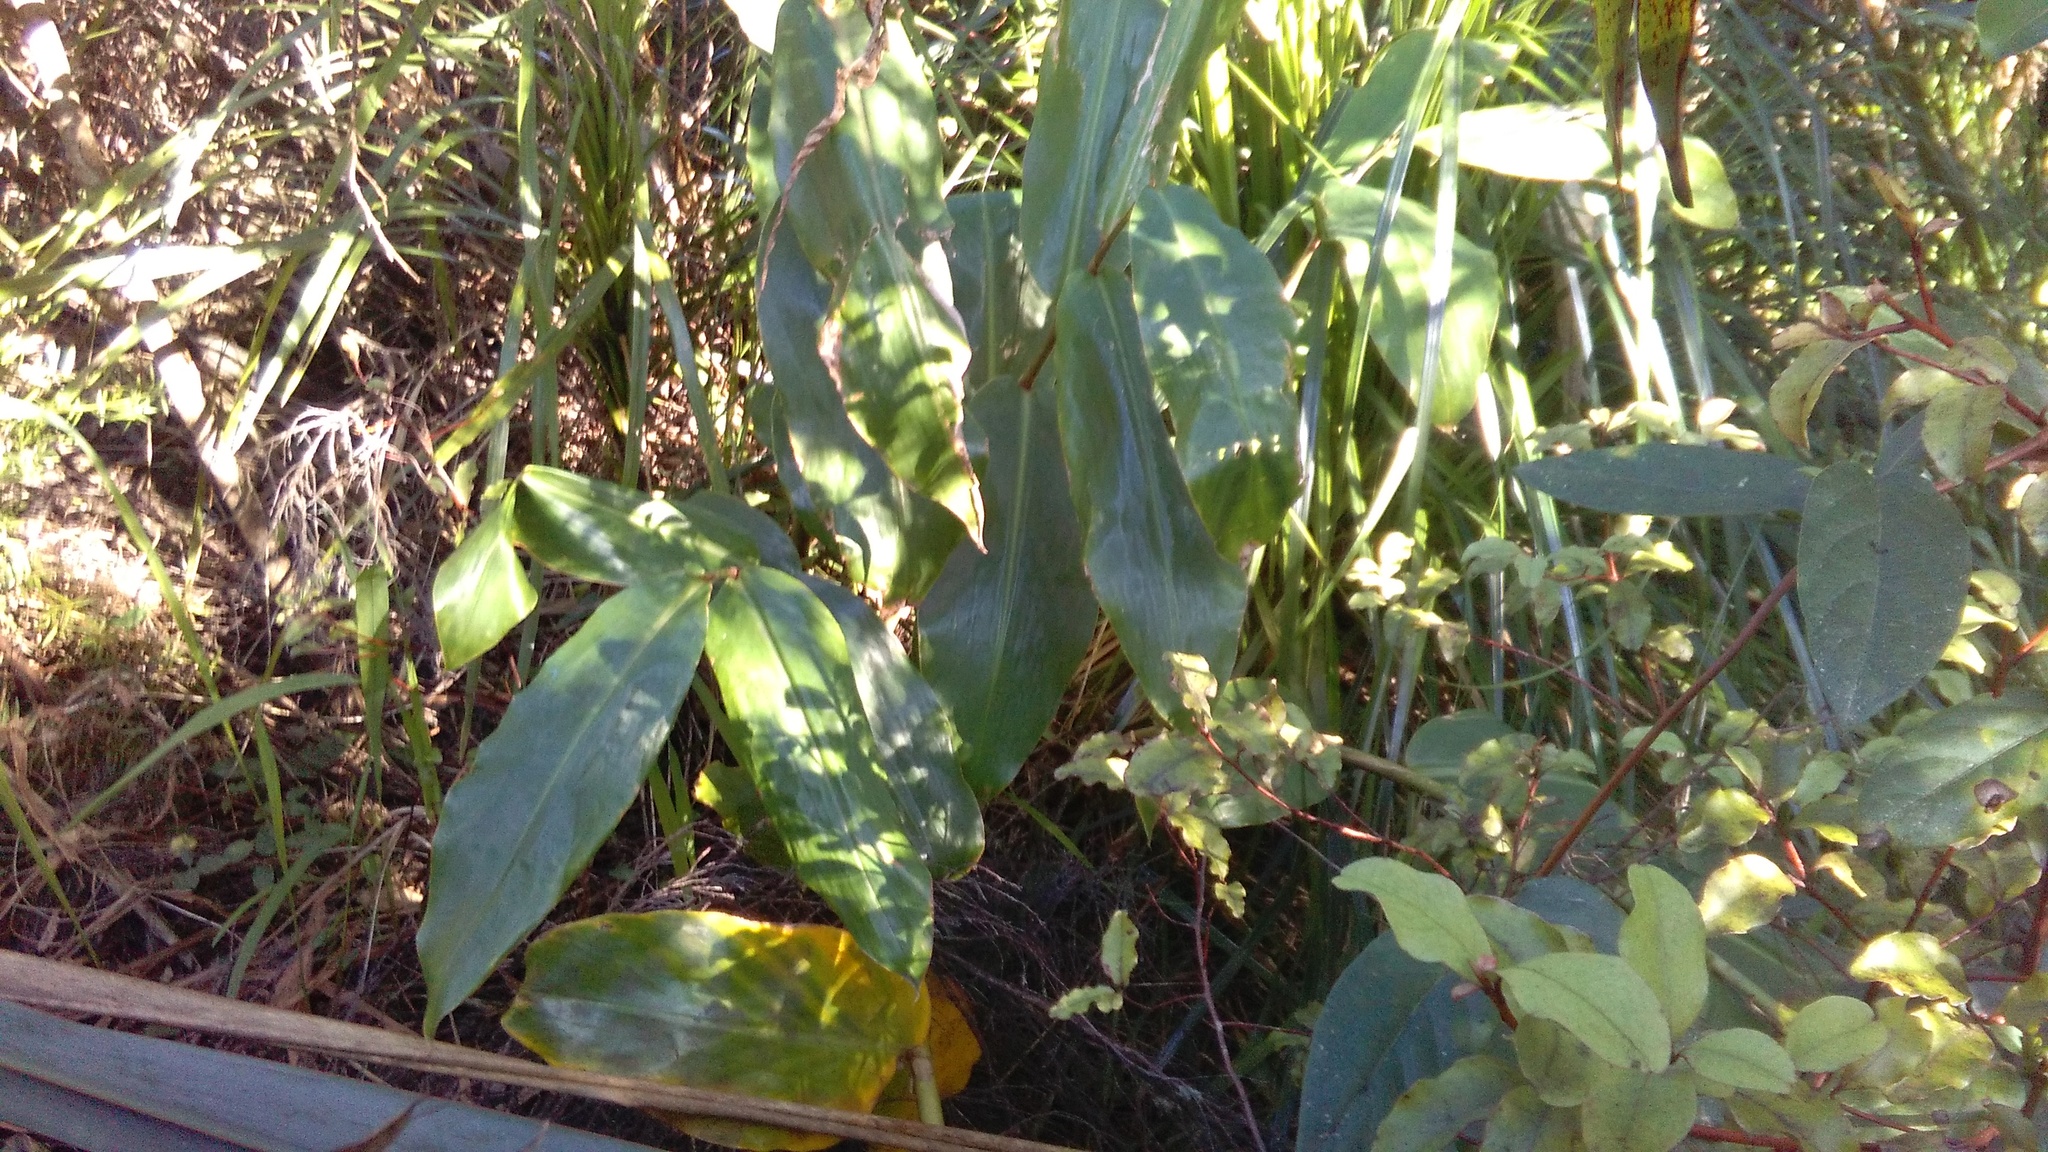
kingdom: Plantae
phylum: Tracheophyta
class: Liliopsida
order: Zingiberales
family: Zingiberaceae
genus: Hedychium
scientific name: Hedychium gardnerianum
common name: Himalayan ginger
